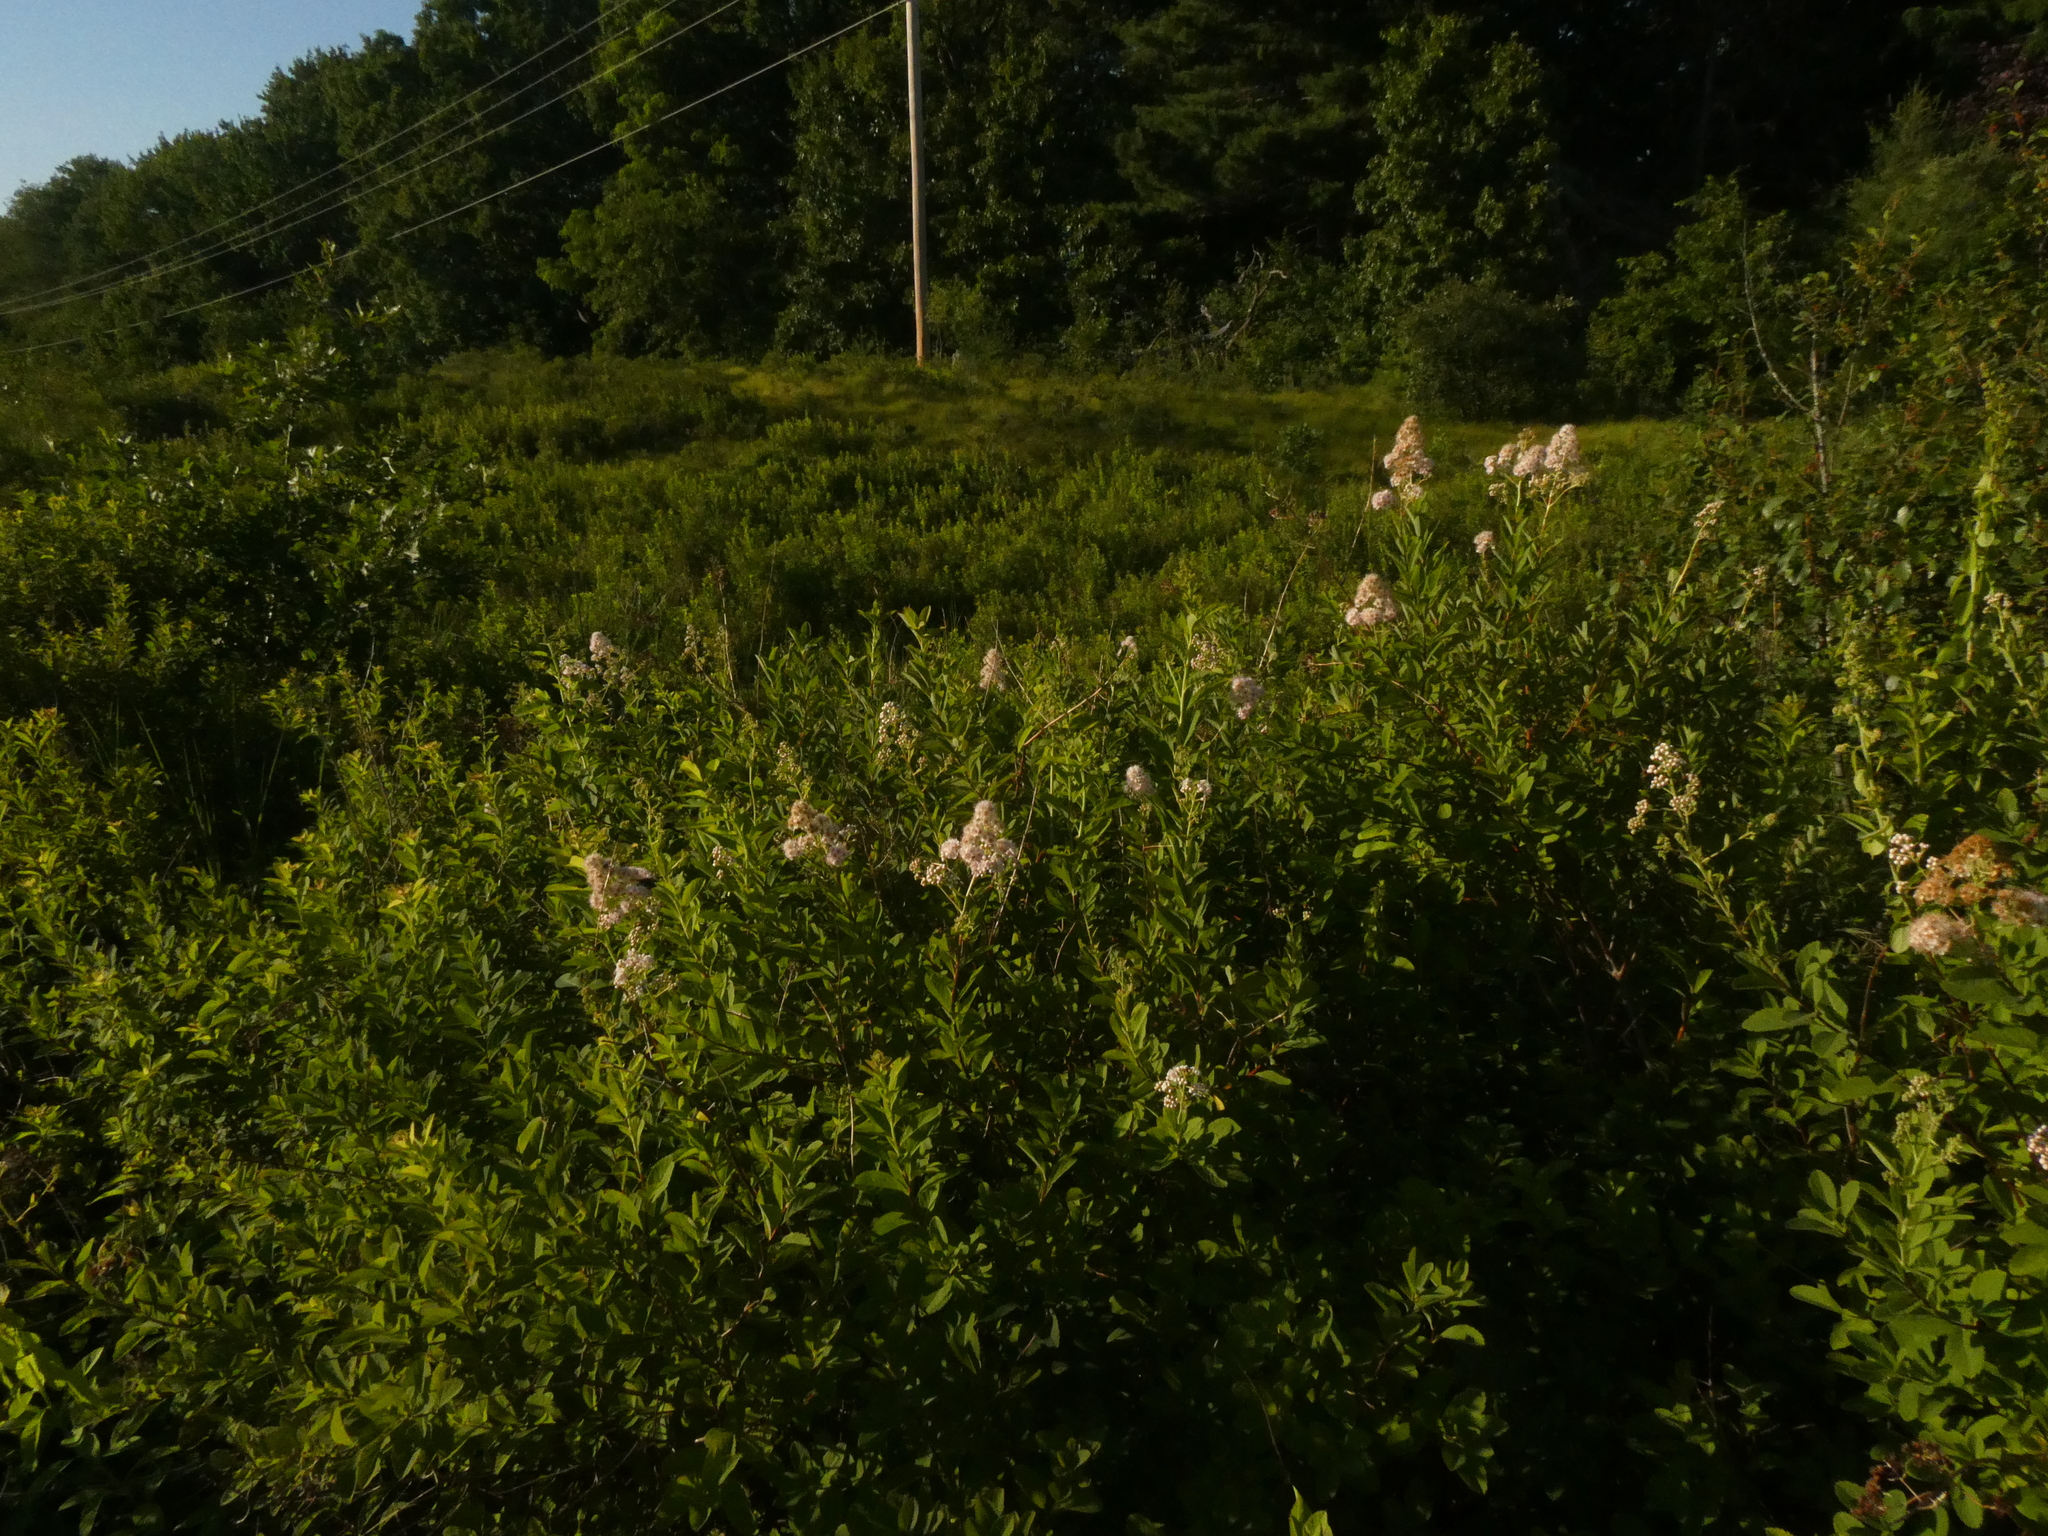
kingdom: Plantae
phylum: Tracheophyta
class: Magnoliopsida
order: Rosales
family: Rosaceae
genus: Spiraea
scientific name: Spiraea alba
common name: Pale bridewort
